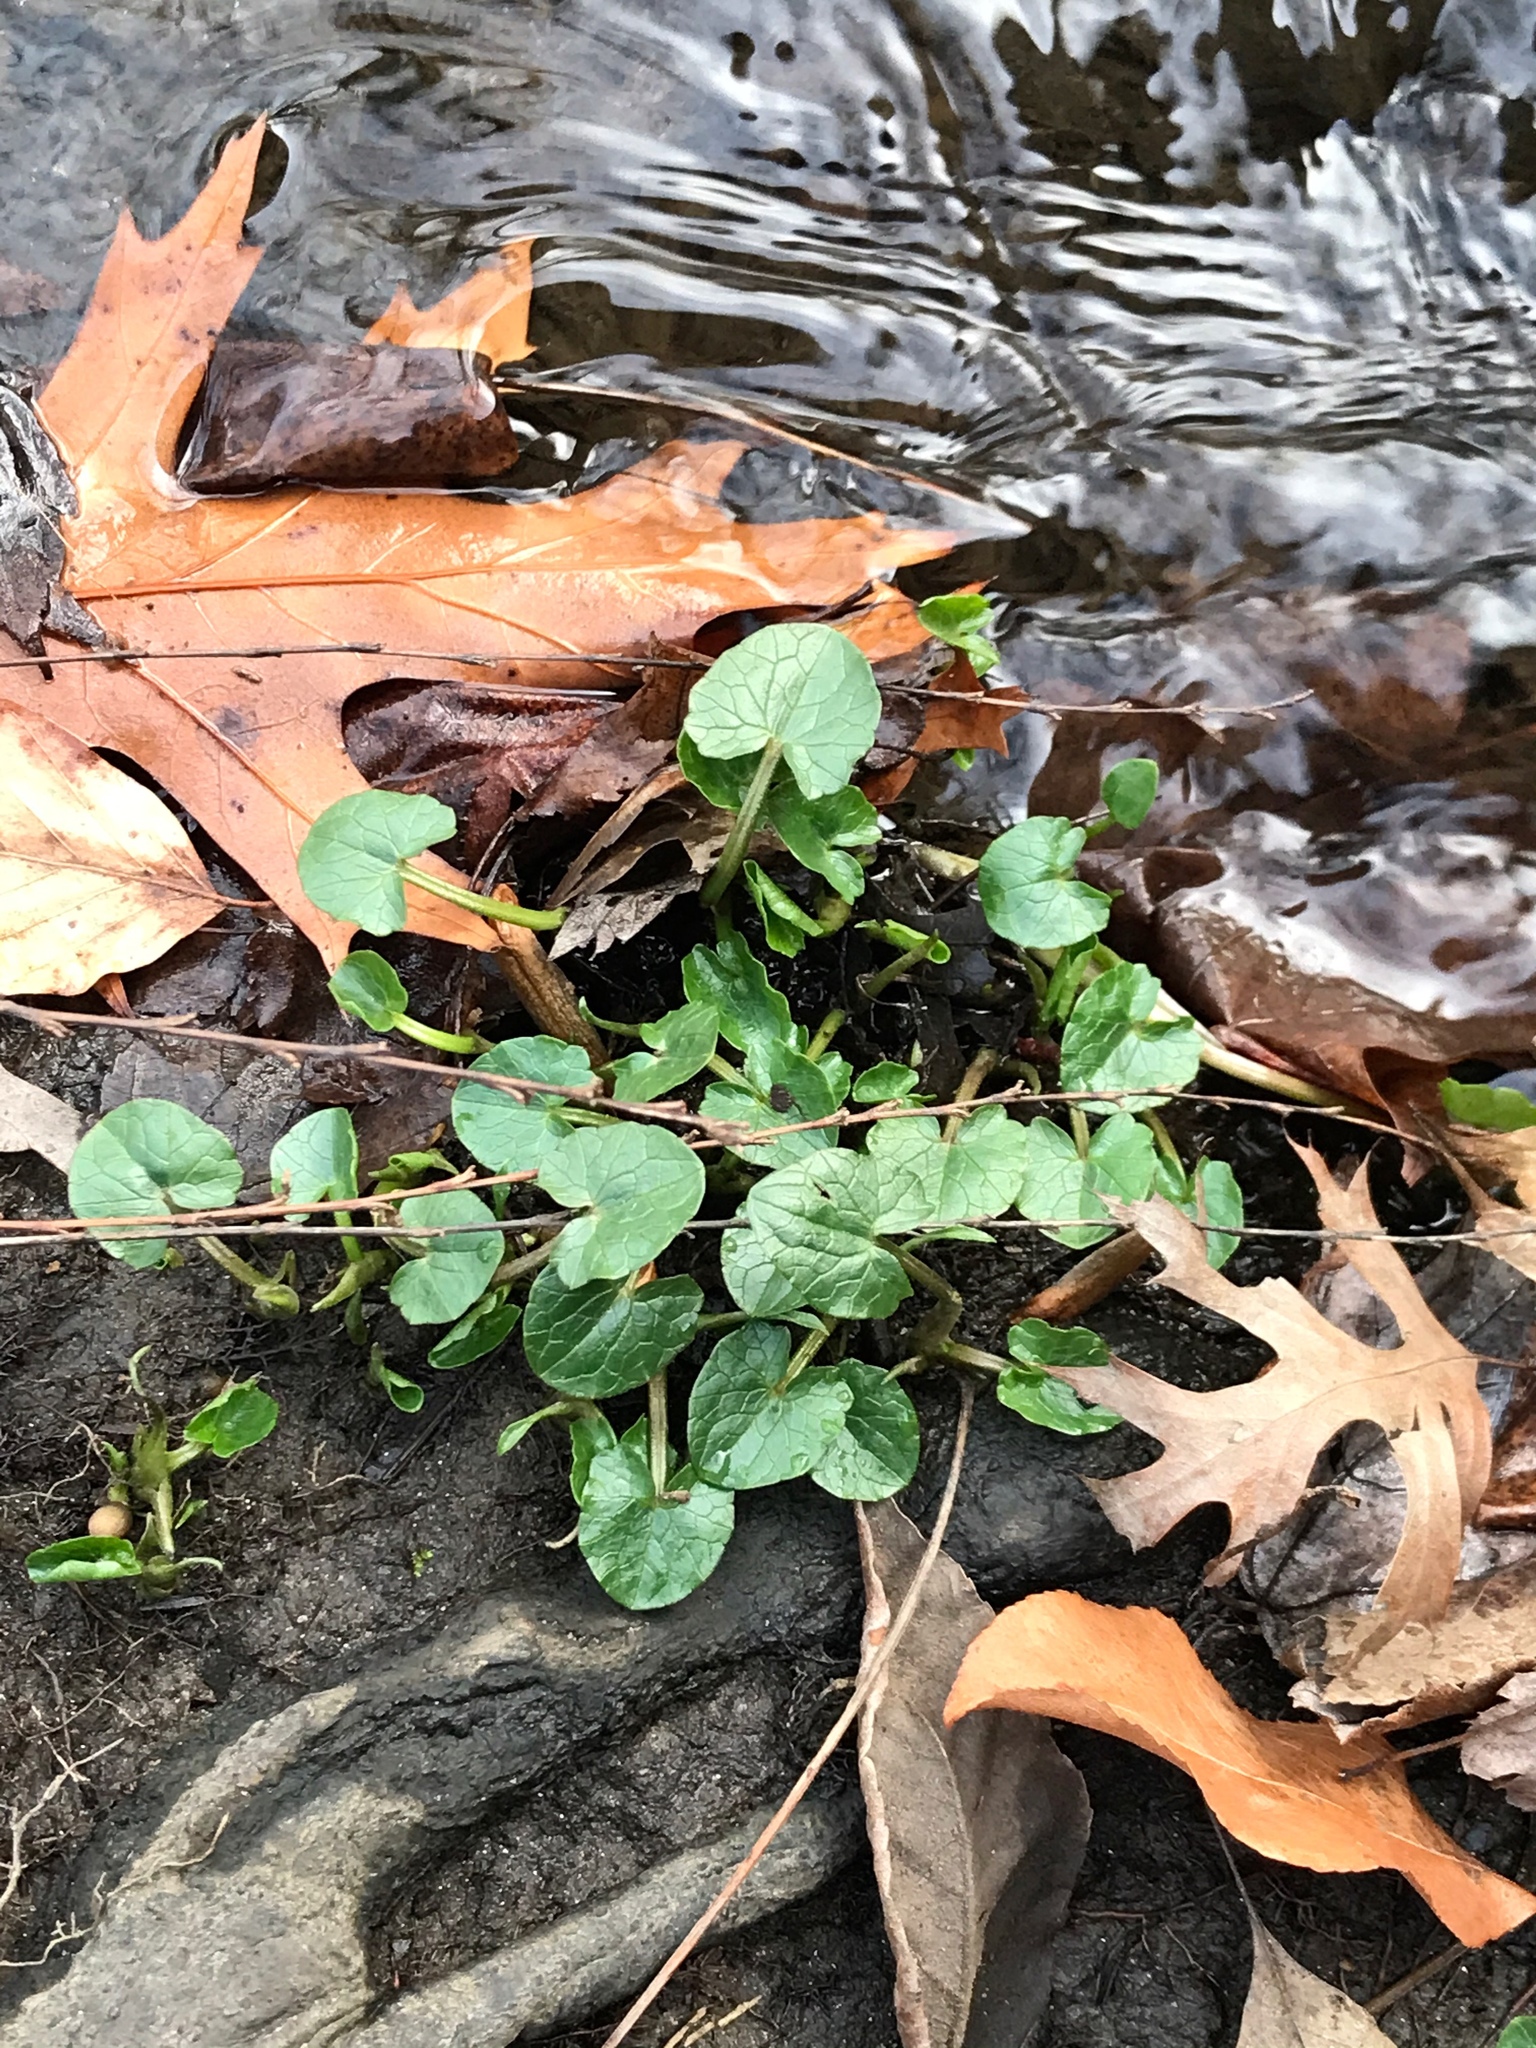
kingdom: Plantae
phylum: Tracheophyta
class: Magnoliopsida
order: Ranunculales
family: Ranunculaceae
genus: Ficaria
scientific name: Ficaria verna
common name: Lesser celandine
